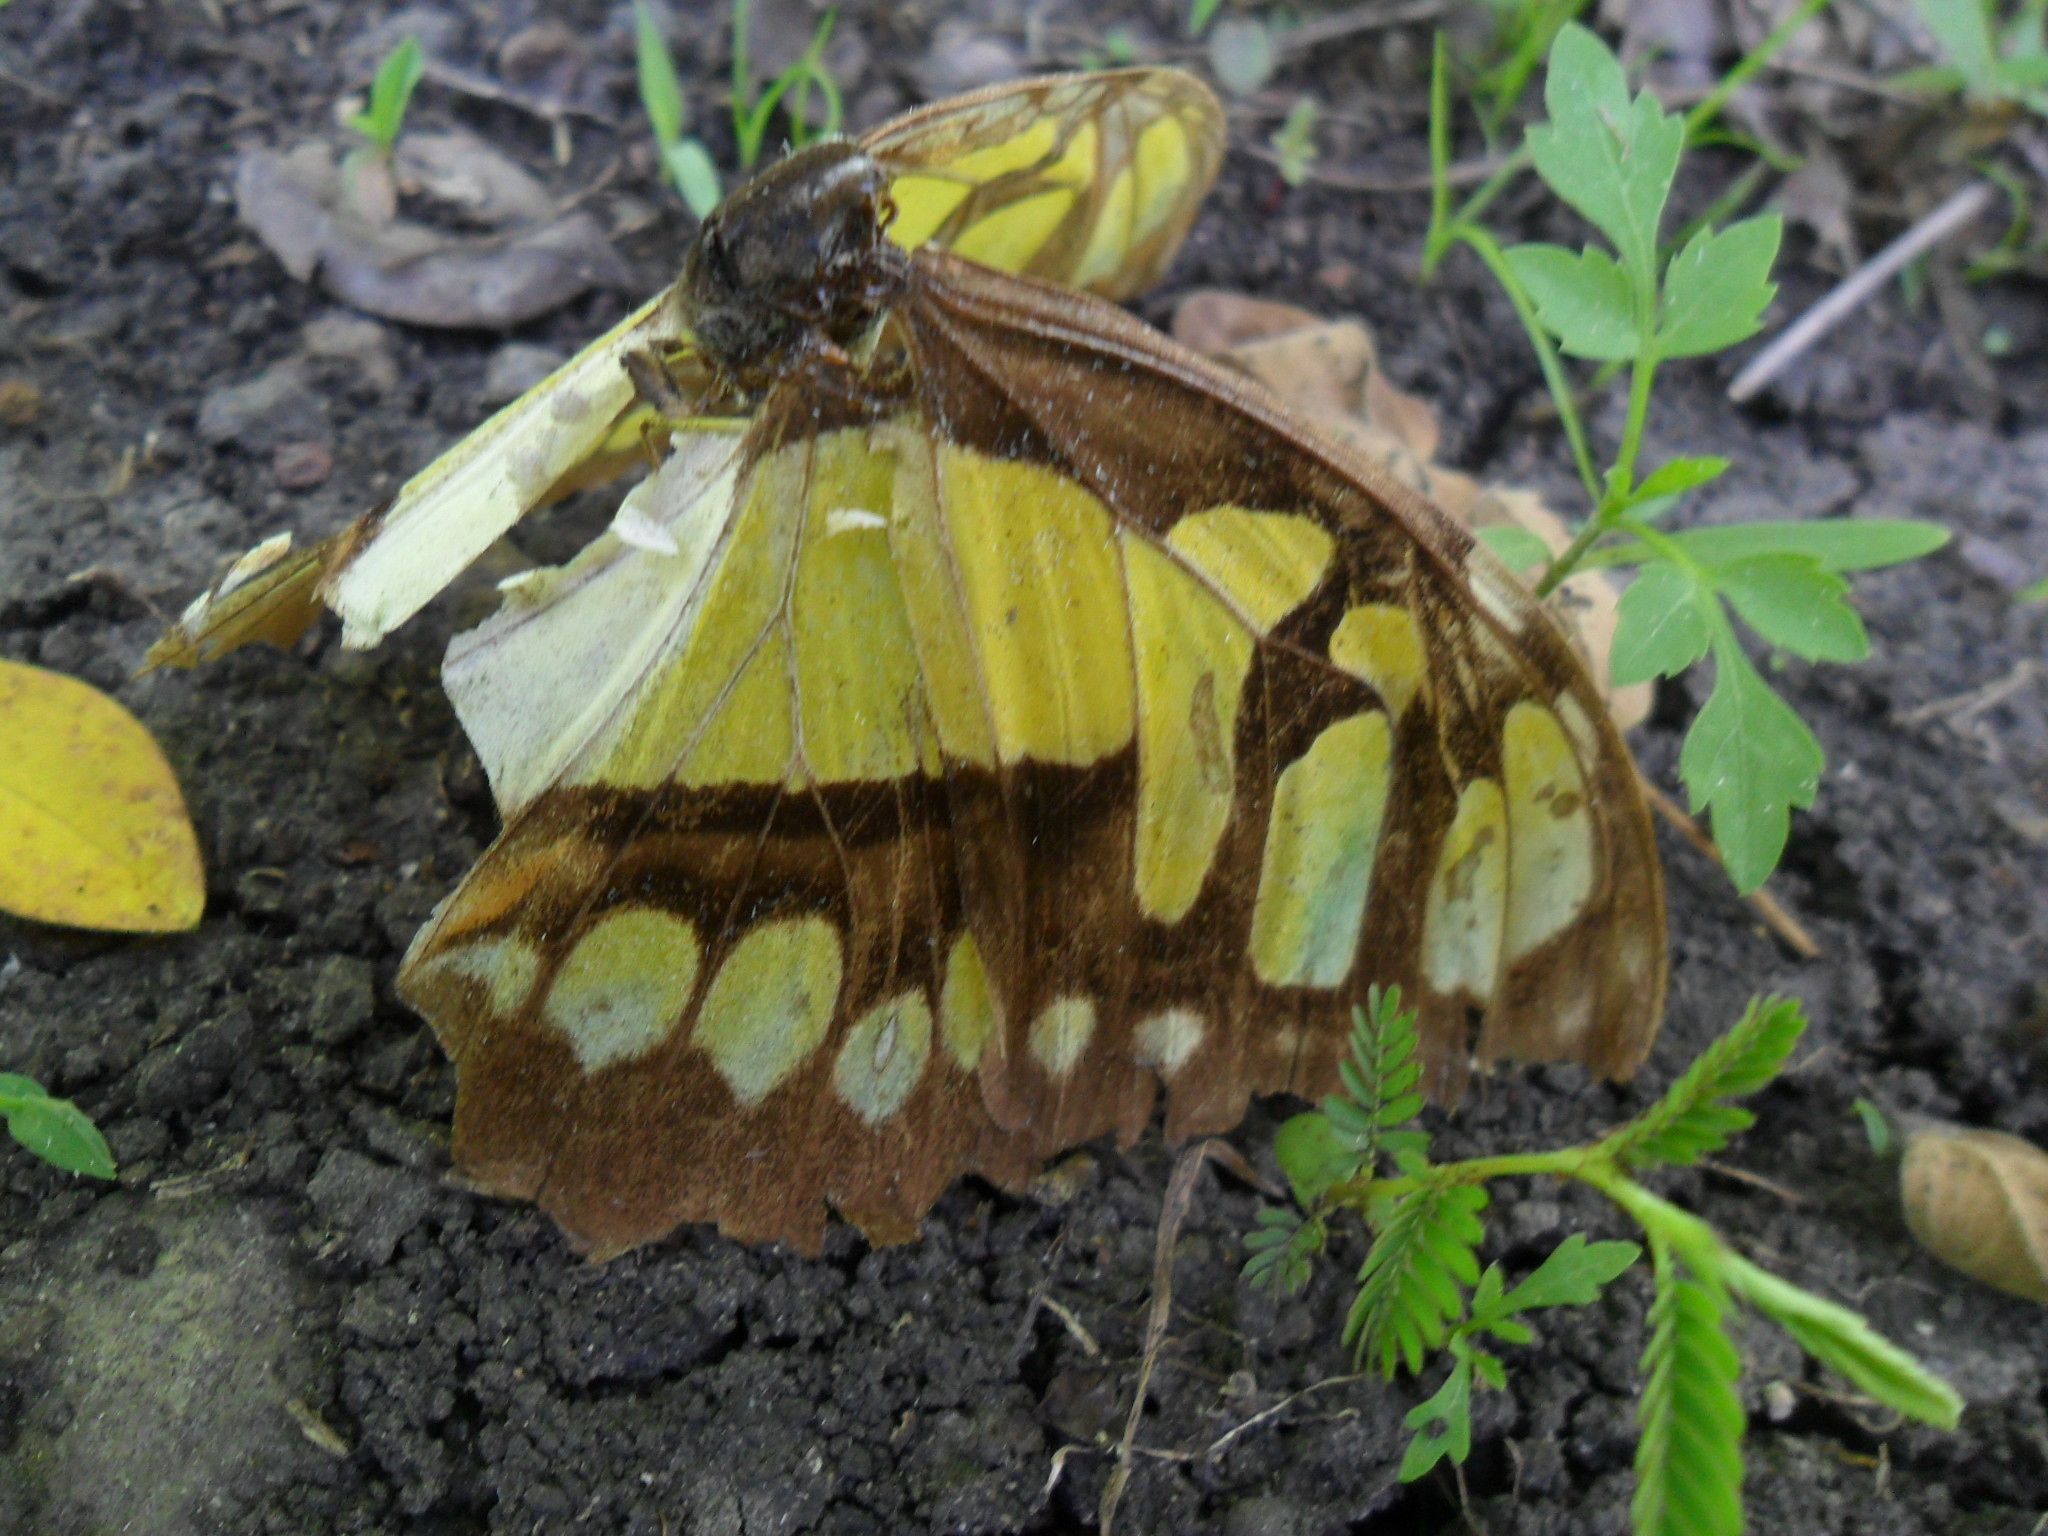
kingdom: Animalia
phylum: Arthropoda
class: Insecta
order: Lepidoptera
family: Nymphalidae
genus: Siproeta
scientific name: Siproeta stelenes
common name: Malachite
